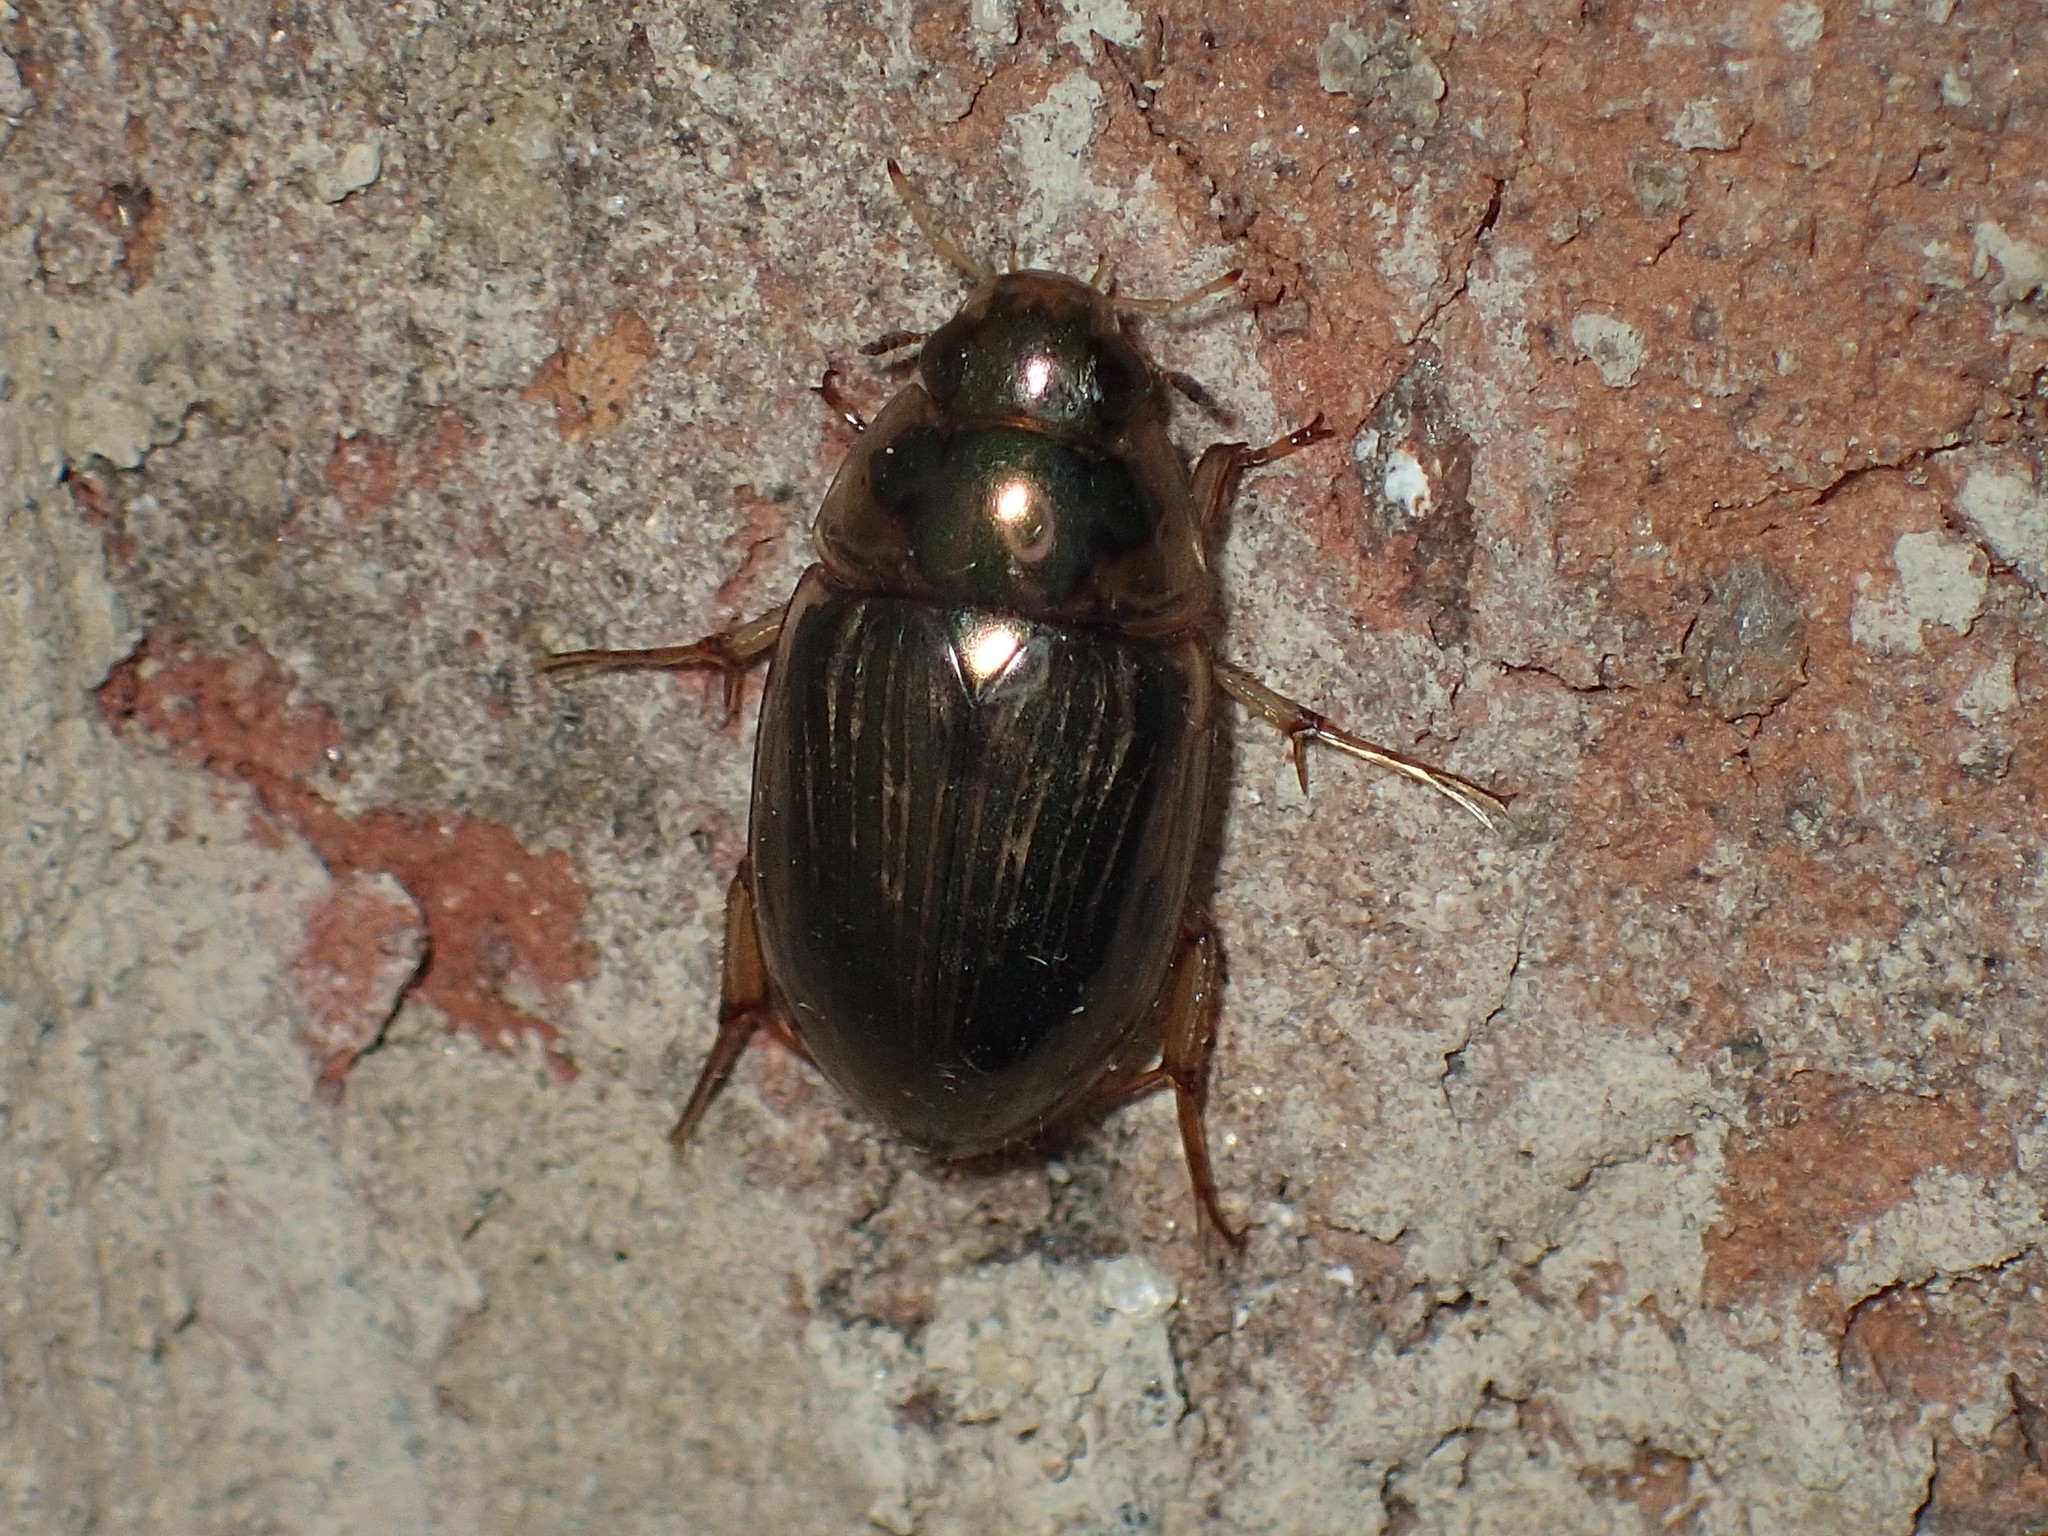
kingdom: Animalia
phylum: Arthropoda
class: Insecta
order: Coleoptera
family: Hydrophilidae
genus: Tropisternus
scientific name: Tropisternus collaris
